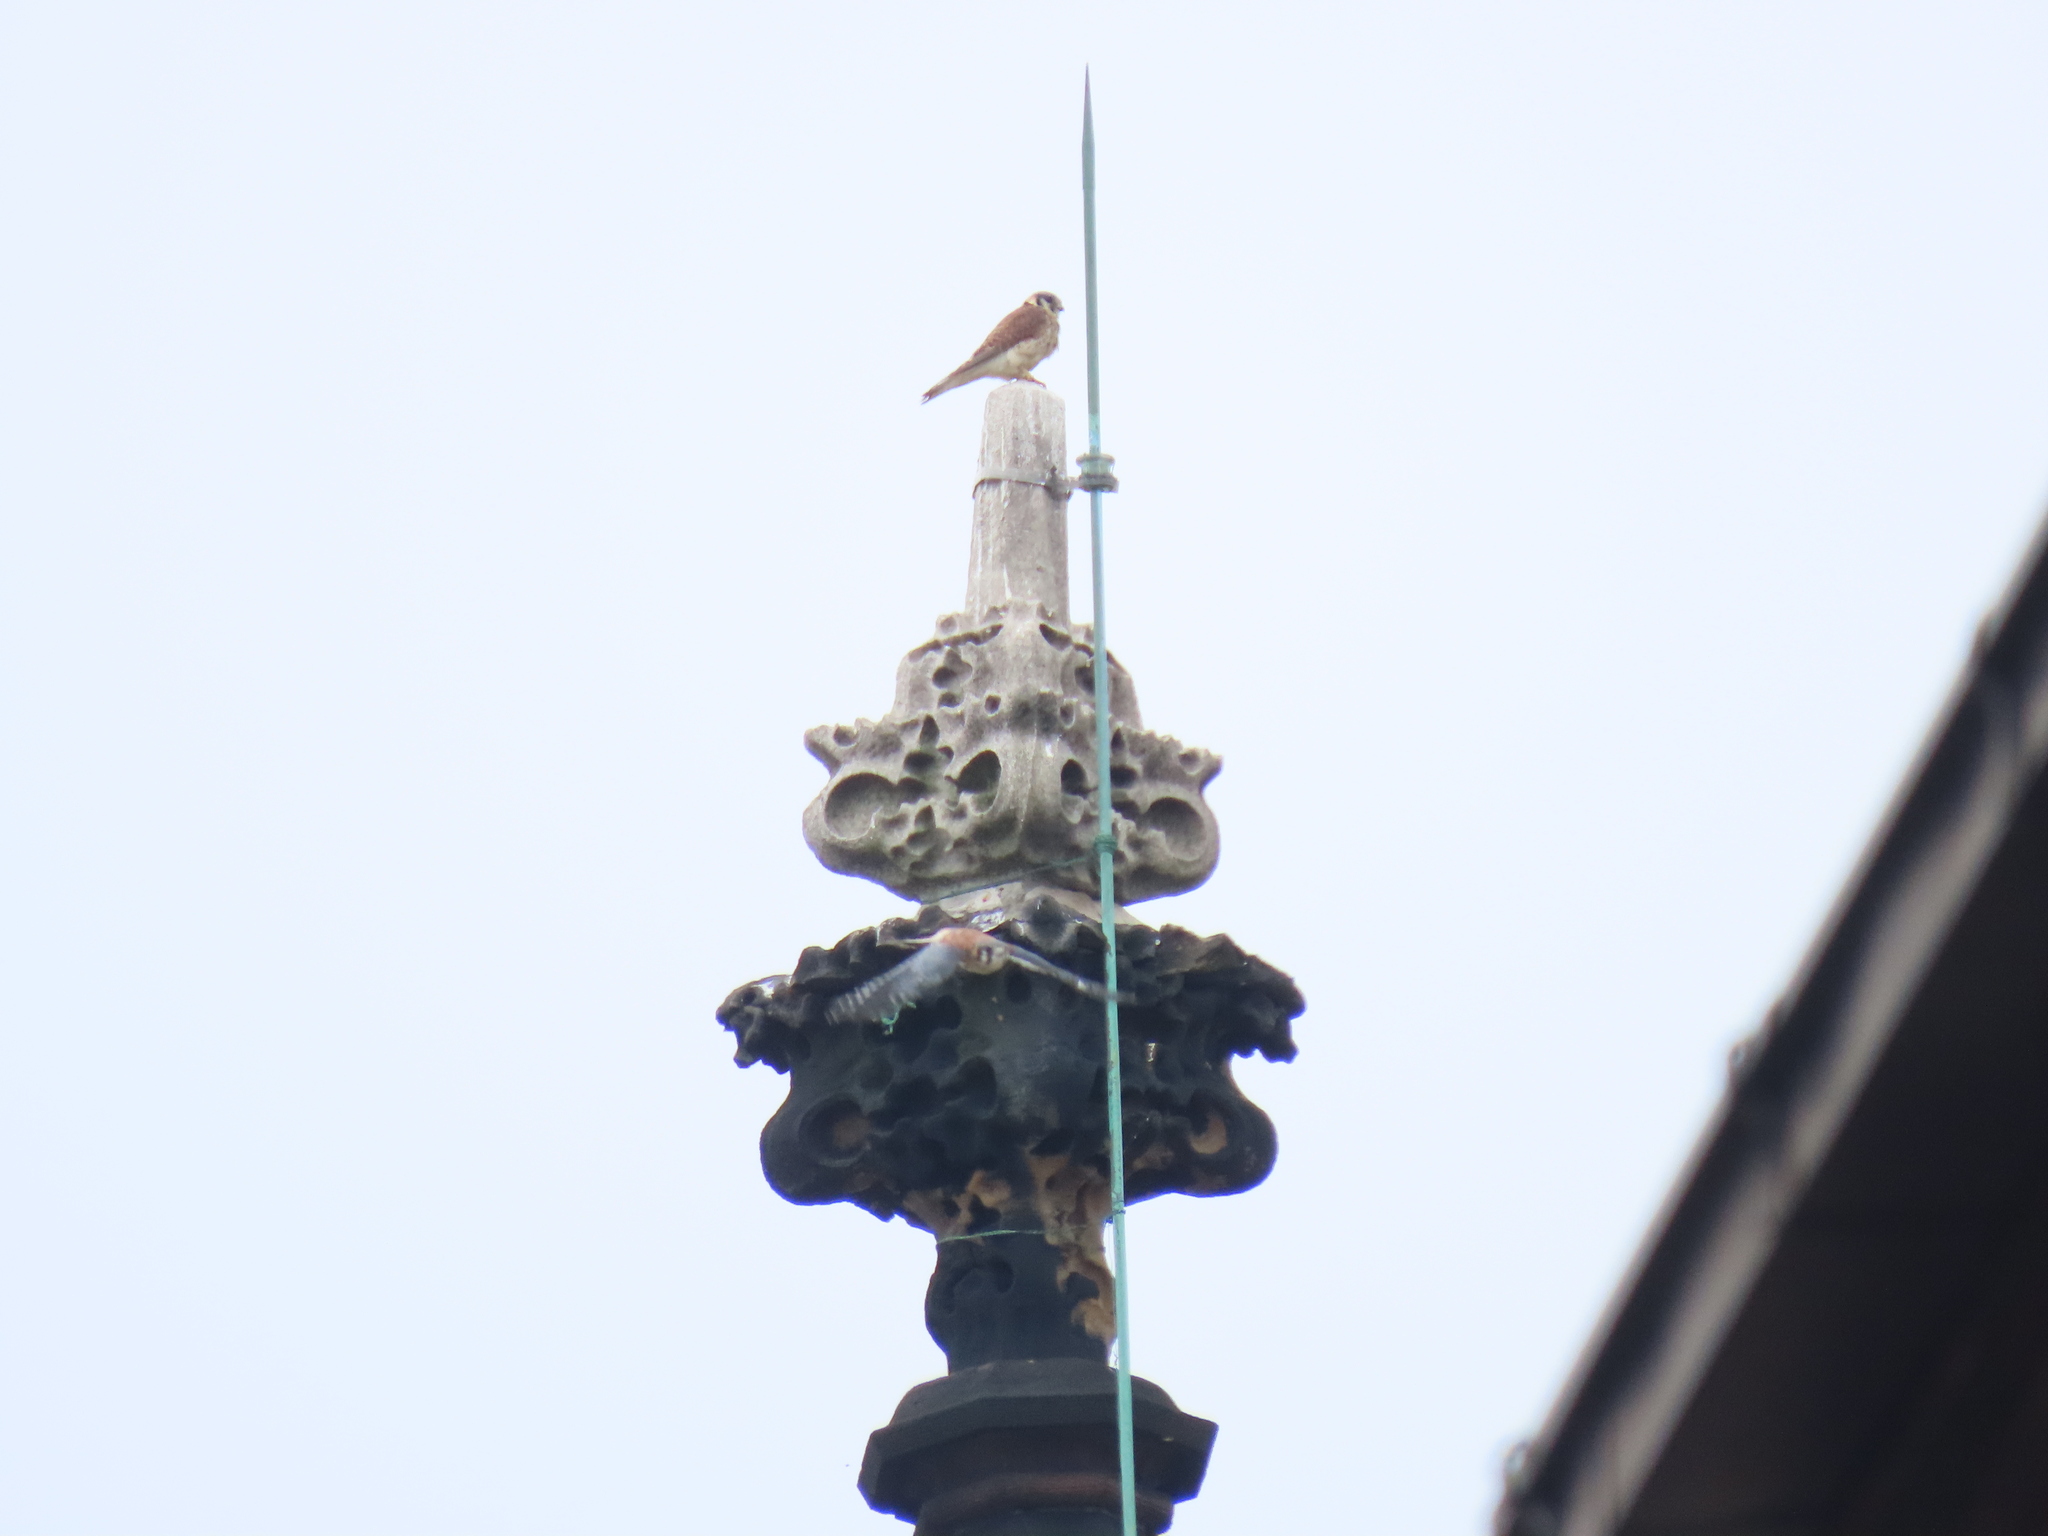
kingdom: Animalia
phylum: Chordata
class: Aves
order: Falconiformes
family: Falconidae
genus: Falco
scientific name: Falco sparverius
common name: American kestrel
